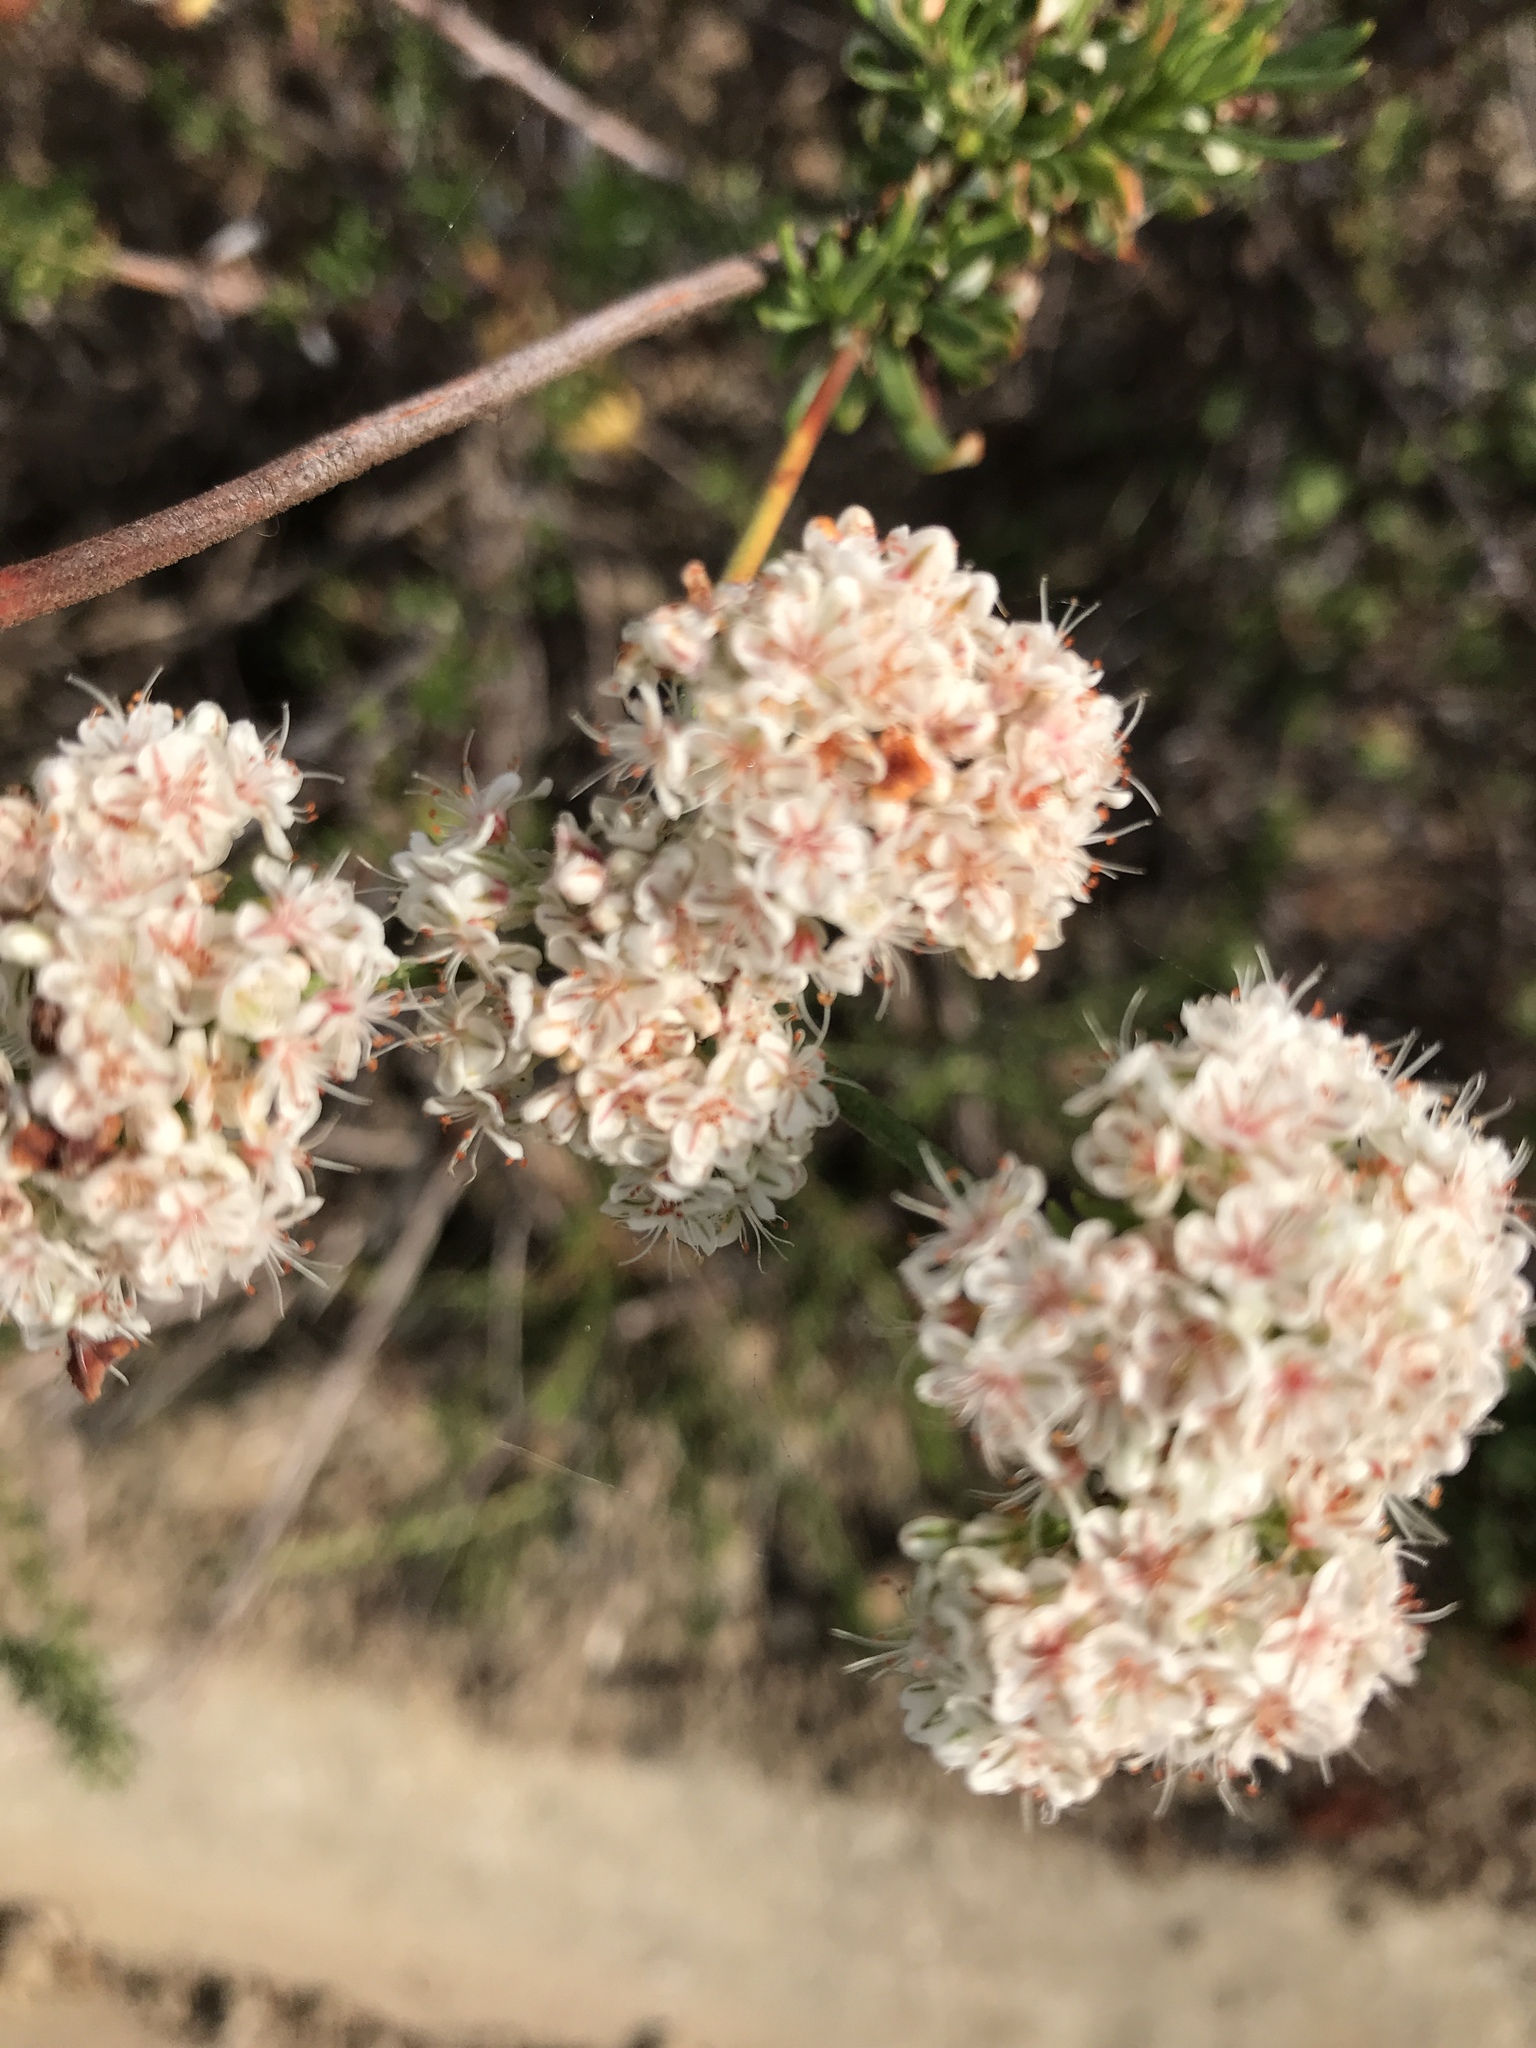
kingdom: Plantae
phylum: Tracheophyta
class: Magnoliopsida
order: Caryophyllales
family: Polygonaceae
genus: Eriogonum
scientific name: Eriogonum fasciculatum
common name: California wild buckwheat
